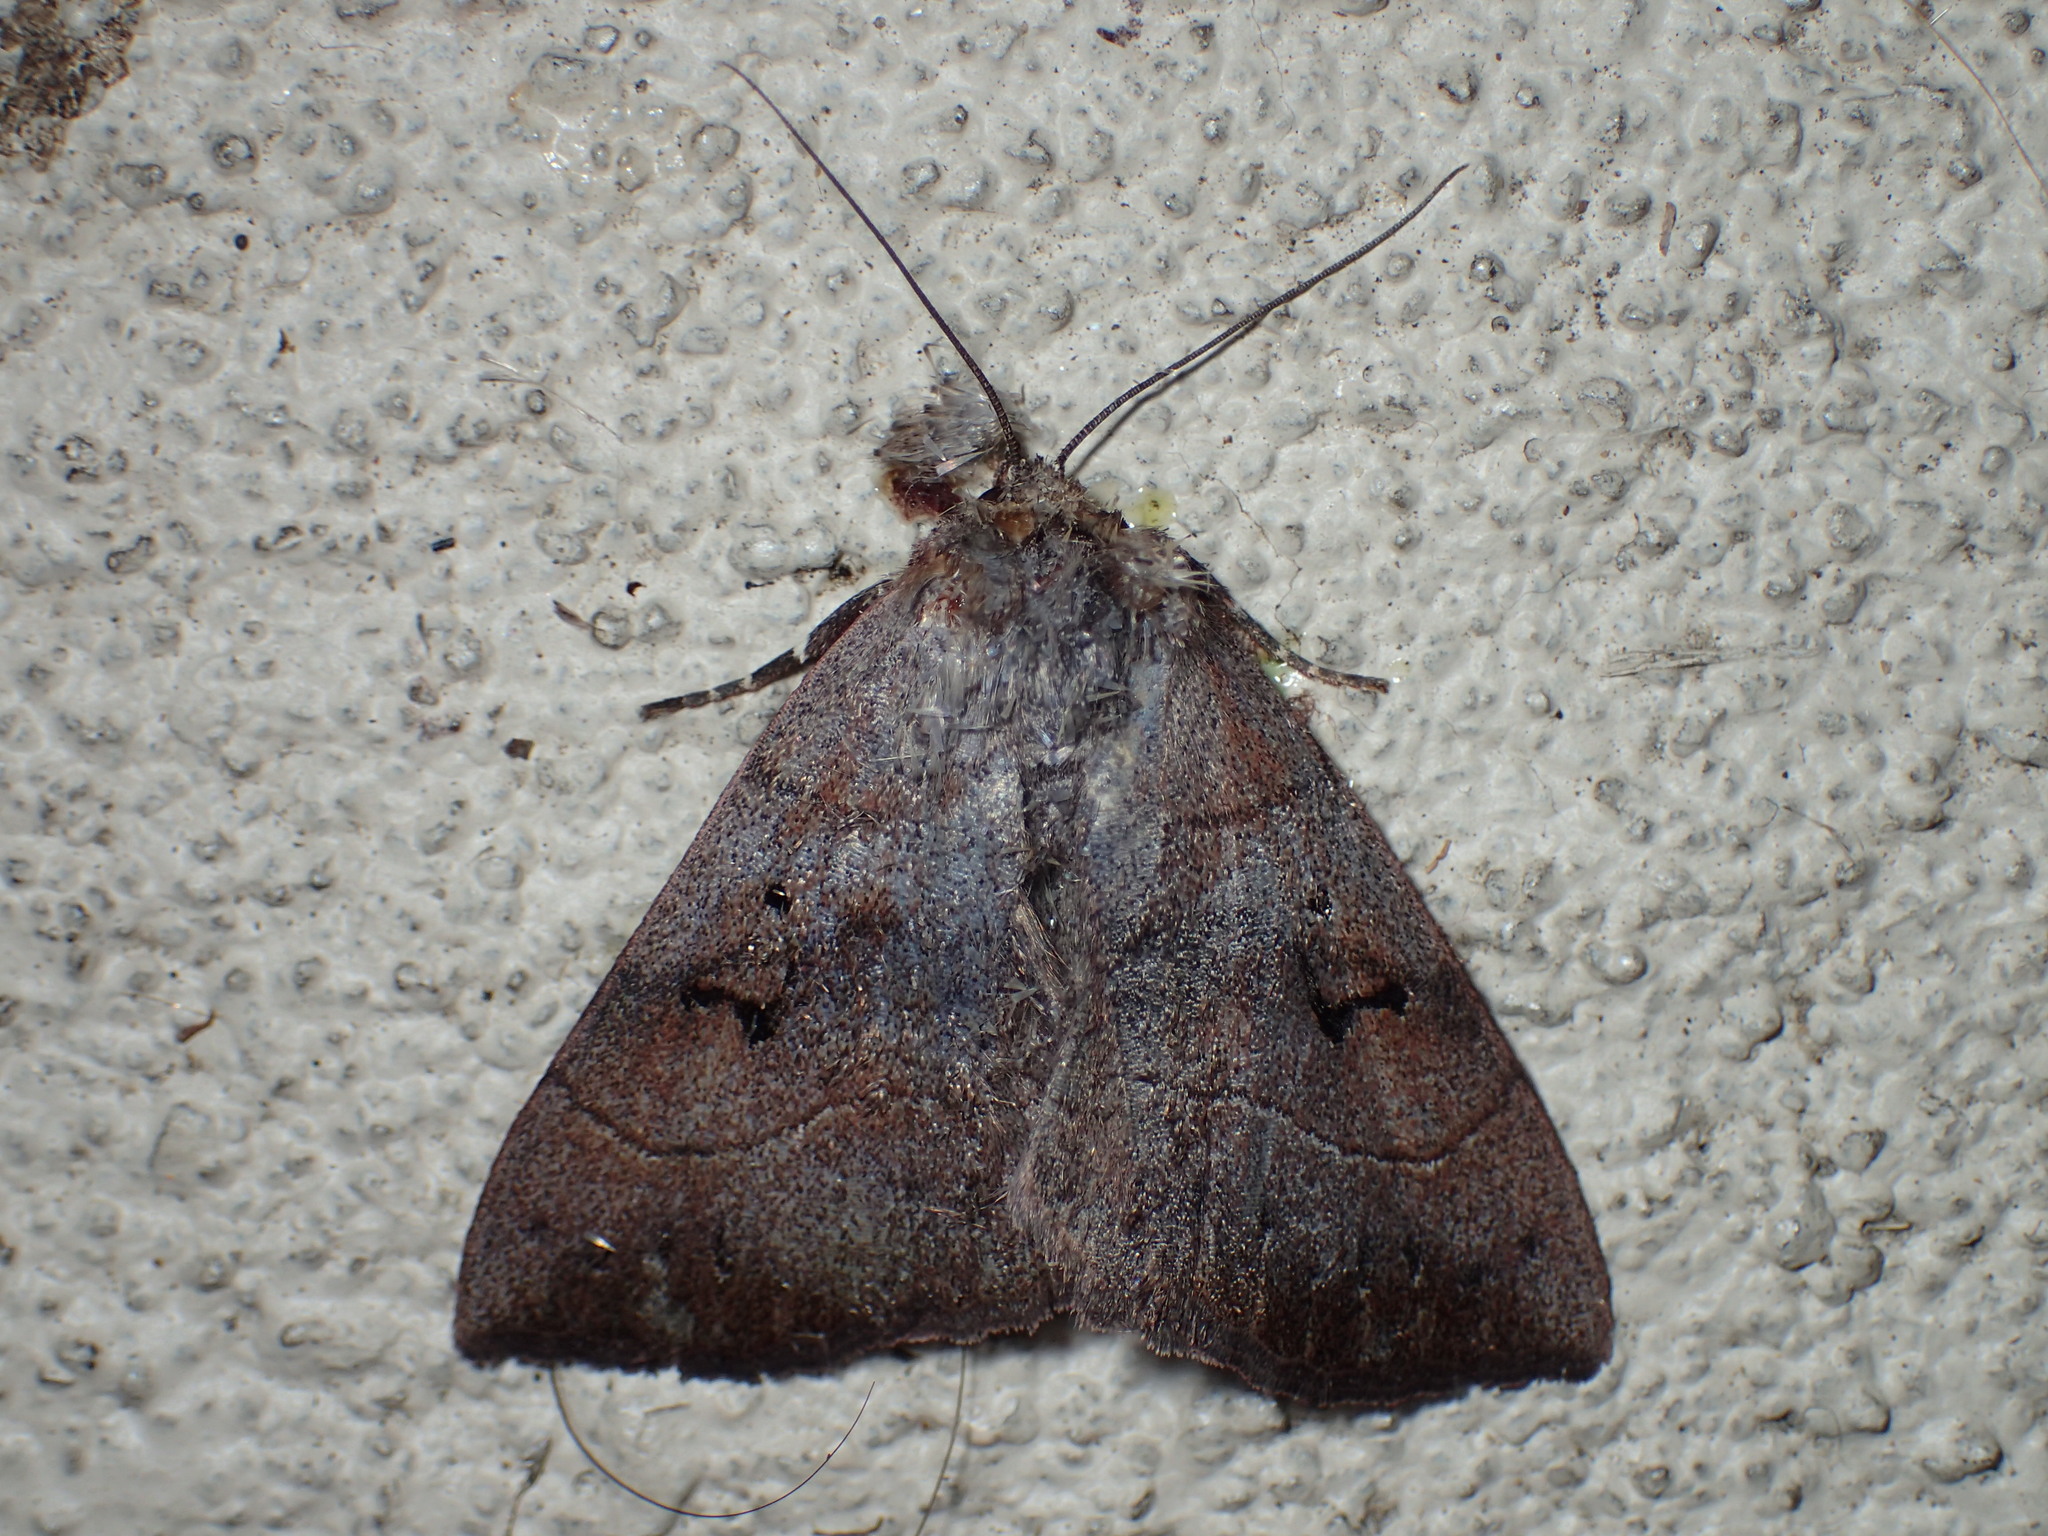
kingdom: Animalia
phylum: Arthropoda
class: Insecta
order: Lepidoptera
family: Erebidae
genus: Panopoda
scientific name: Panopoda carneicosta
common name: Brown panopoda moth
